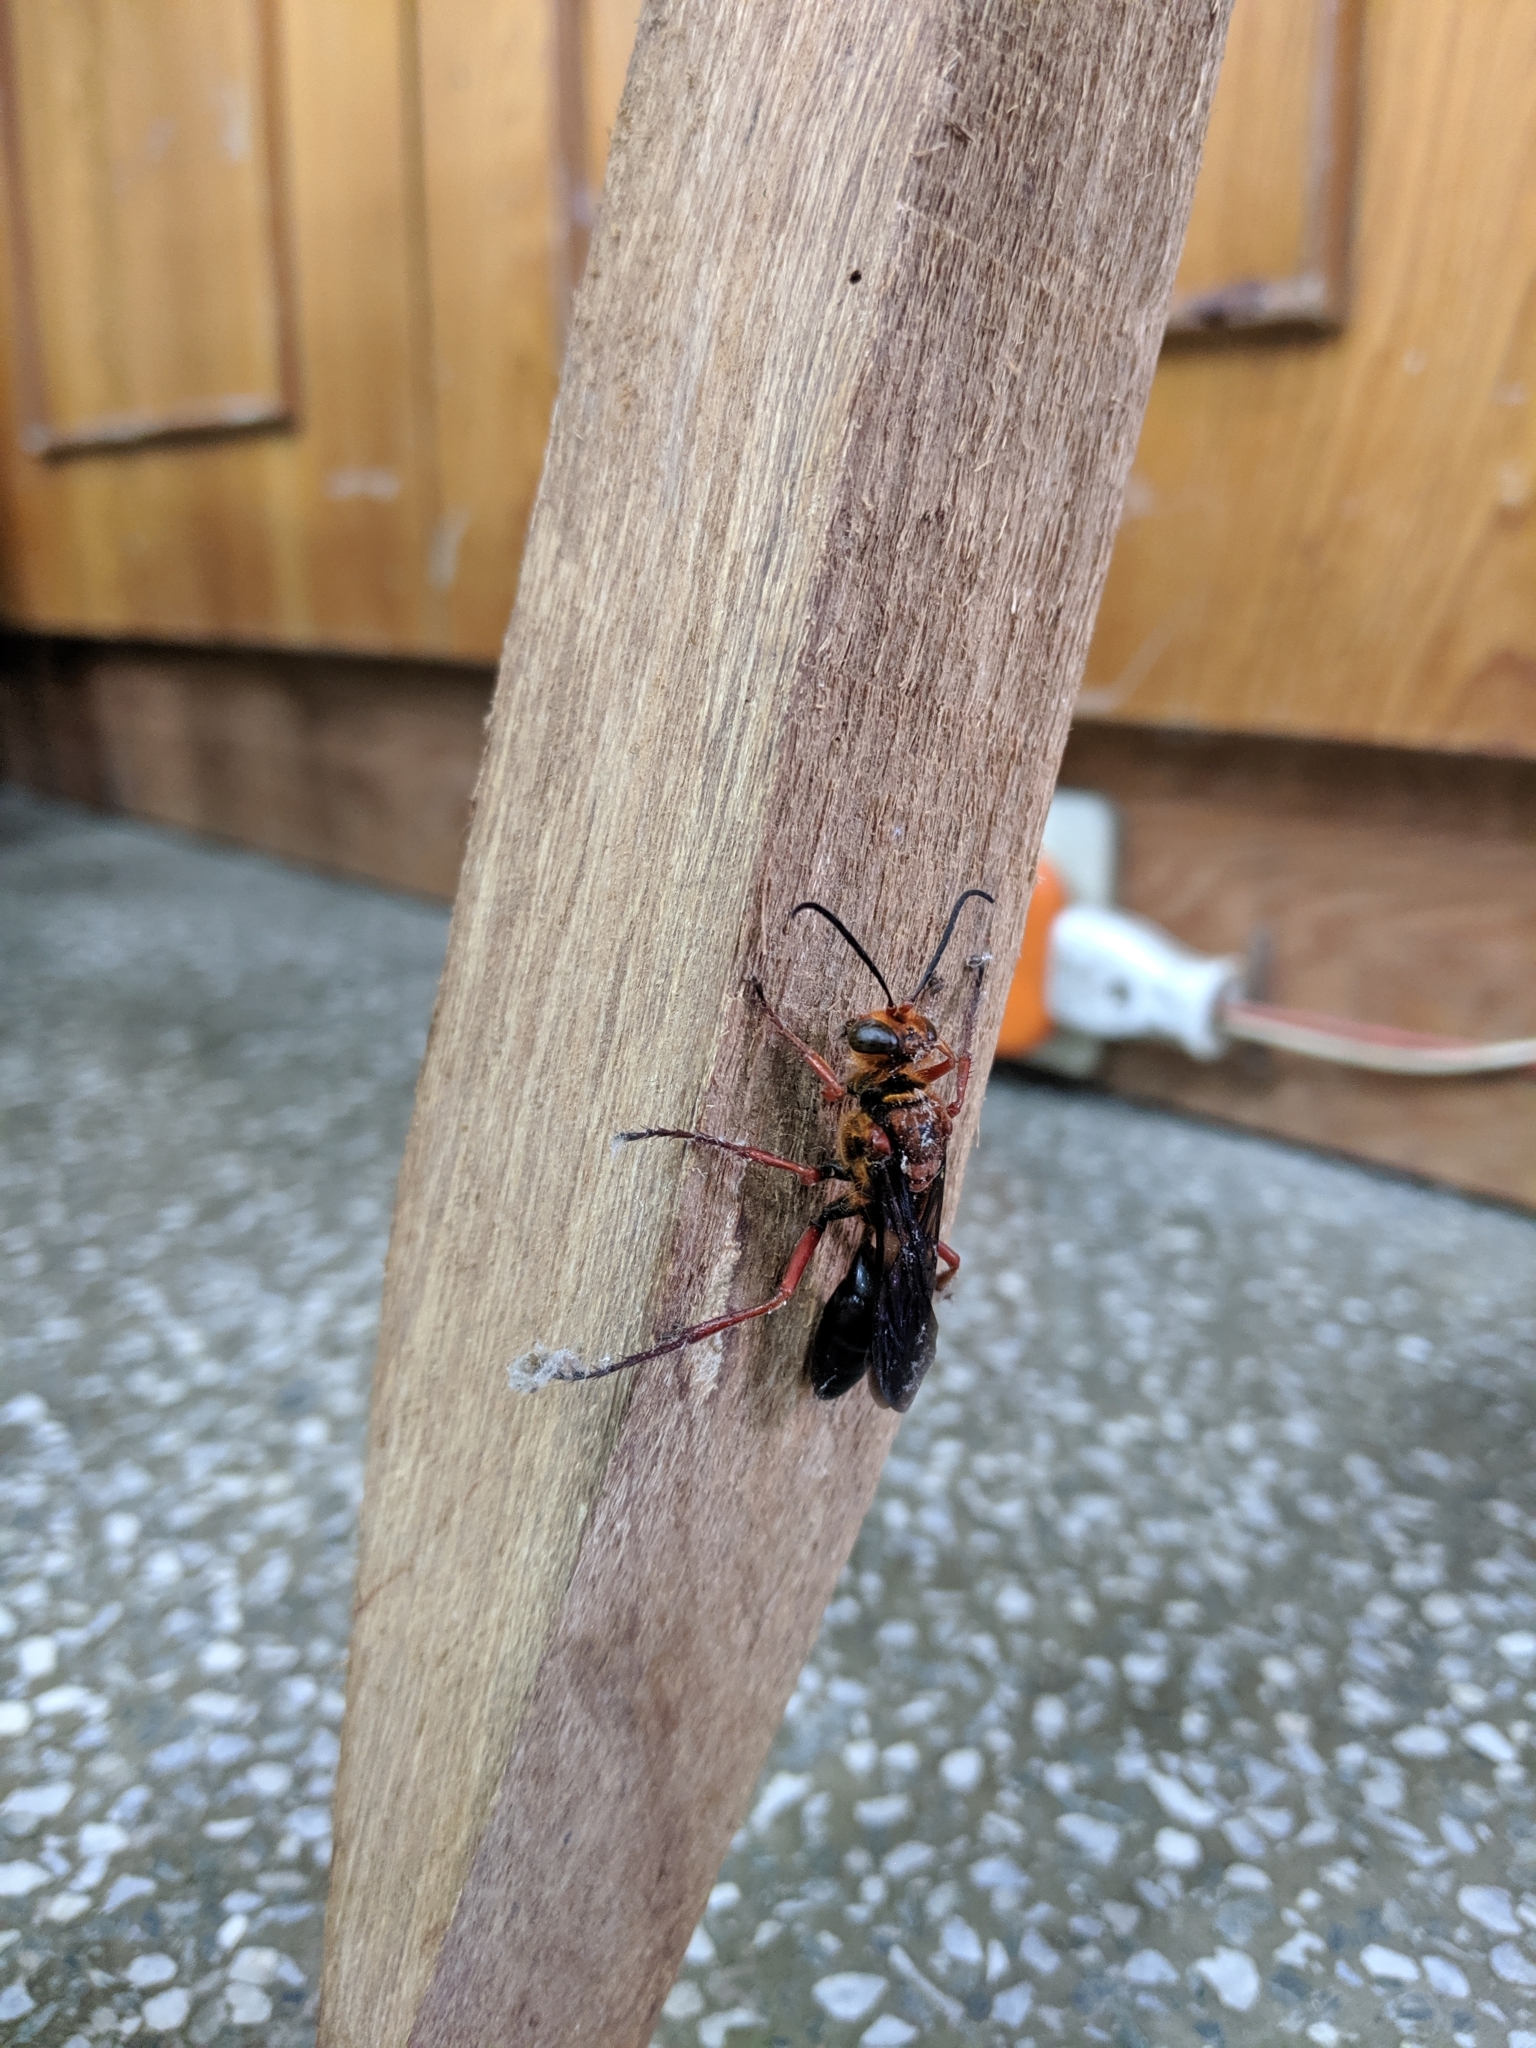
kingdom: Animalia
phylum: Arthropoda
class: Insecta
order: Hymenoptera
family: Sphecidae
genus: Sphex
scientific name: Sphex sericeus
